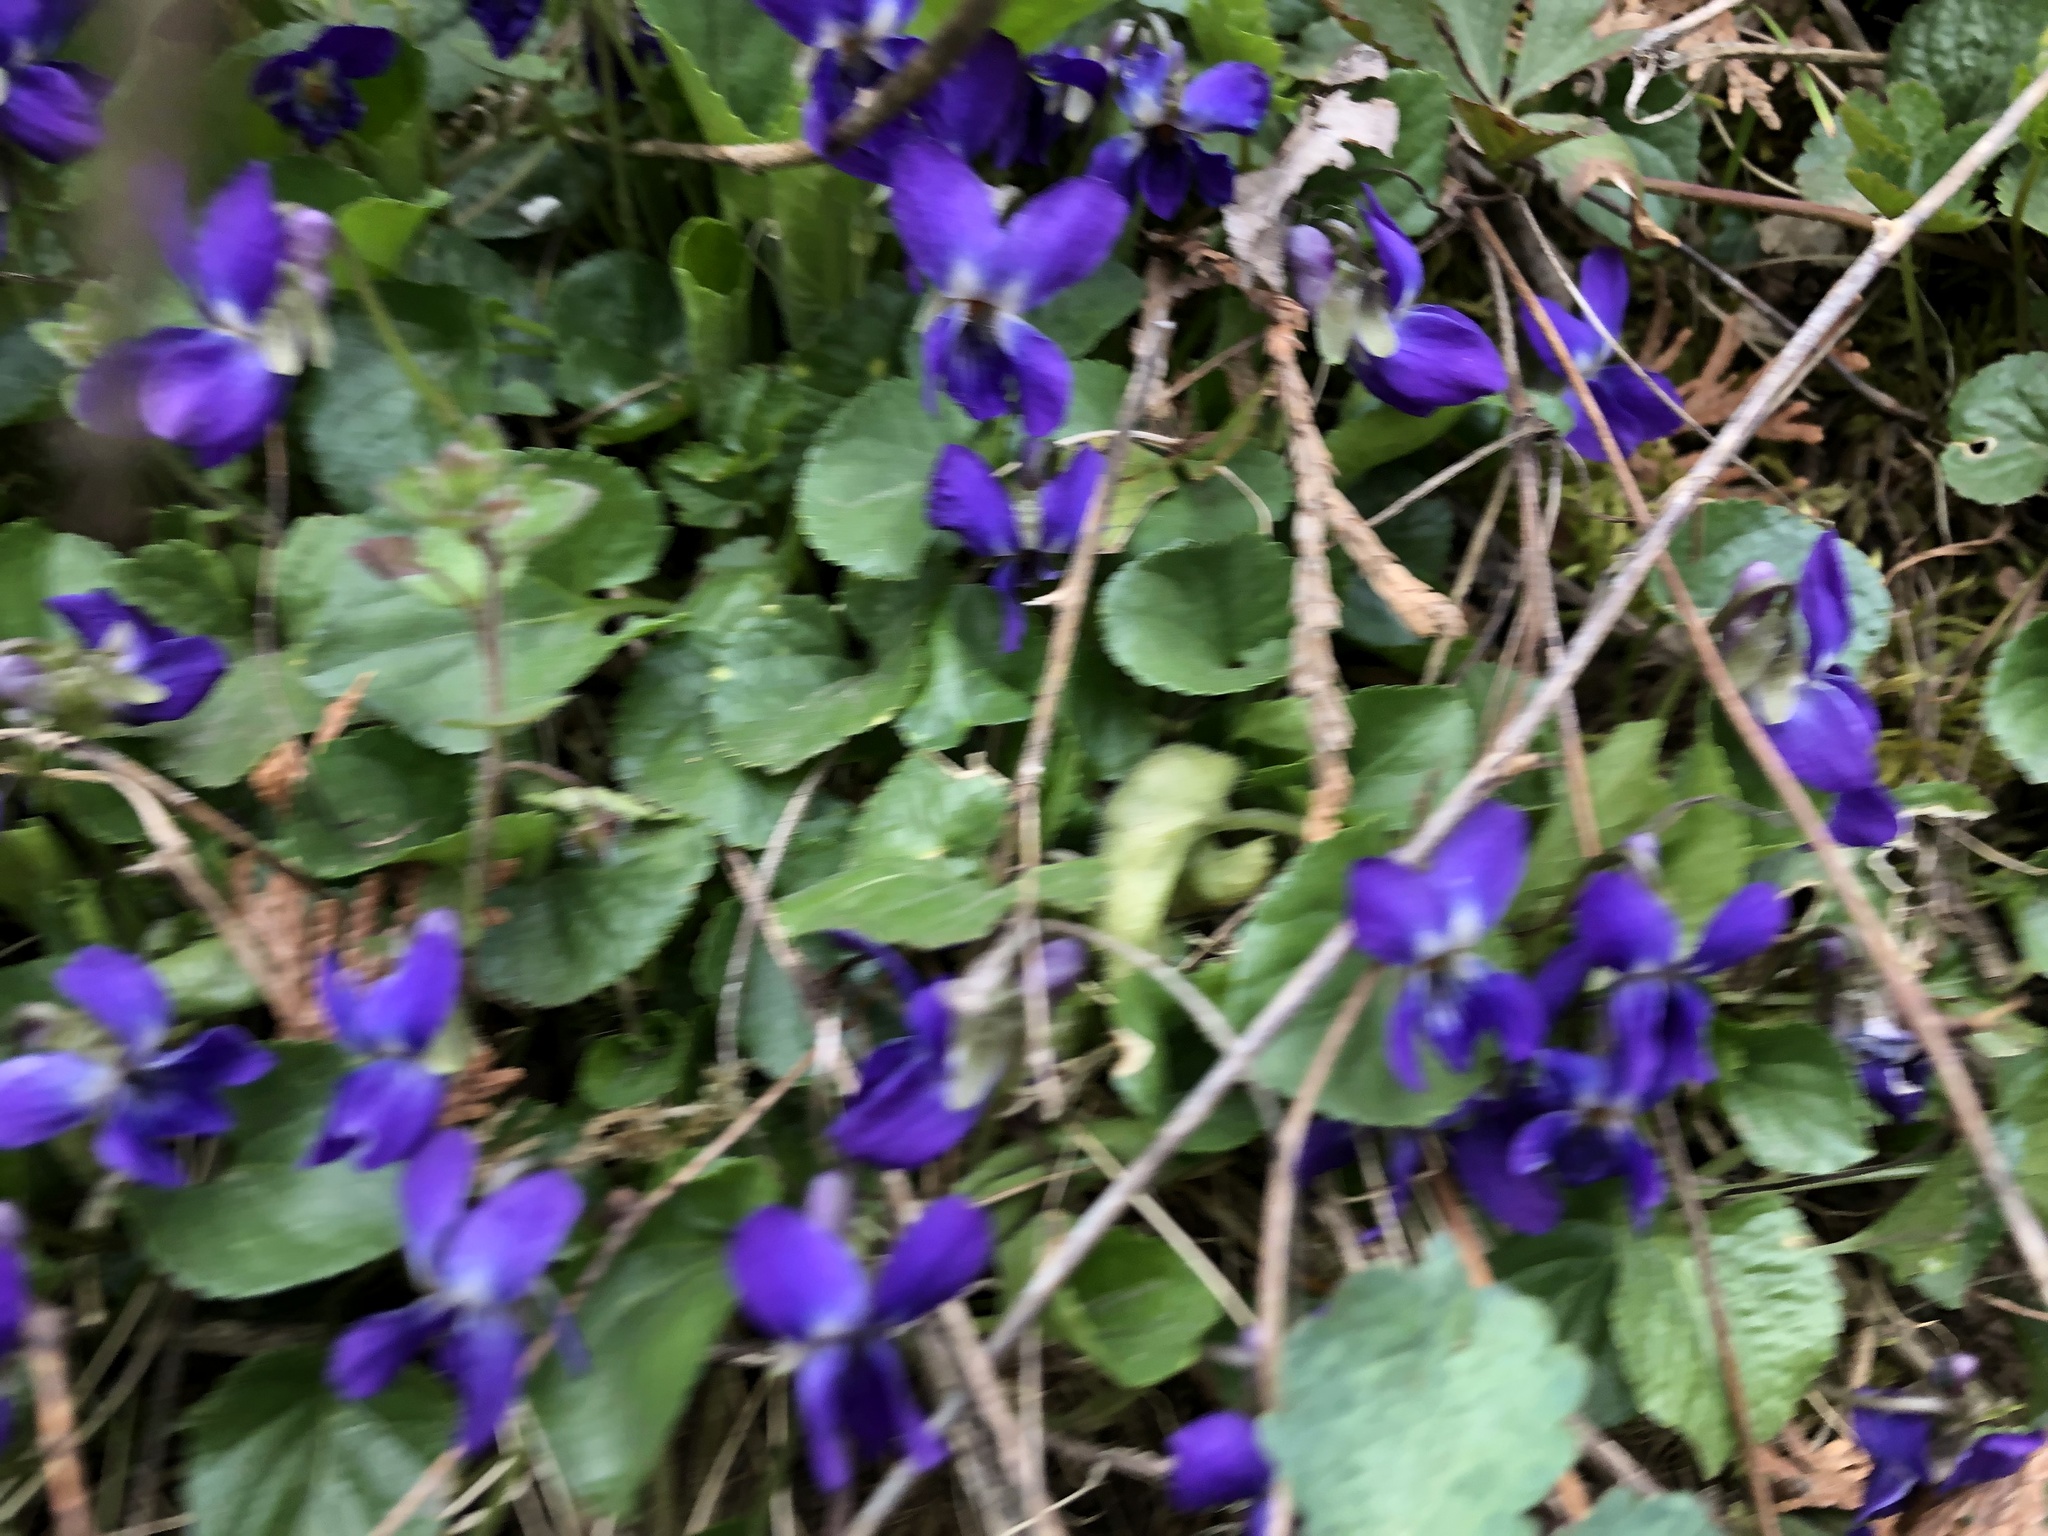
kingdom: Plantae
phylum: Tracheophyta
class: Magnoliopsida
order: Malpighiales
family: Violaceae
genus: Viola
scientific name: Viola odorata
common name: Sweet violet
